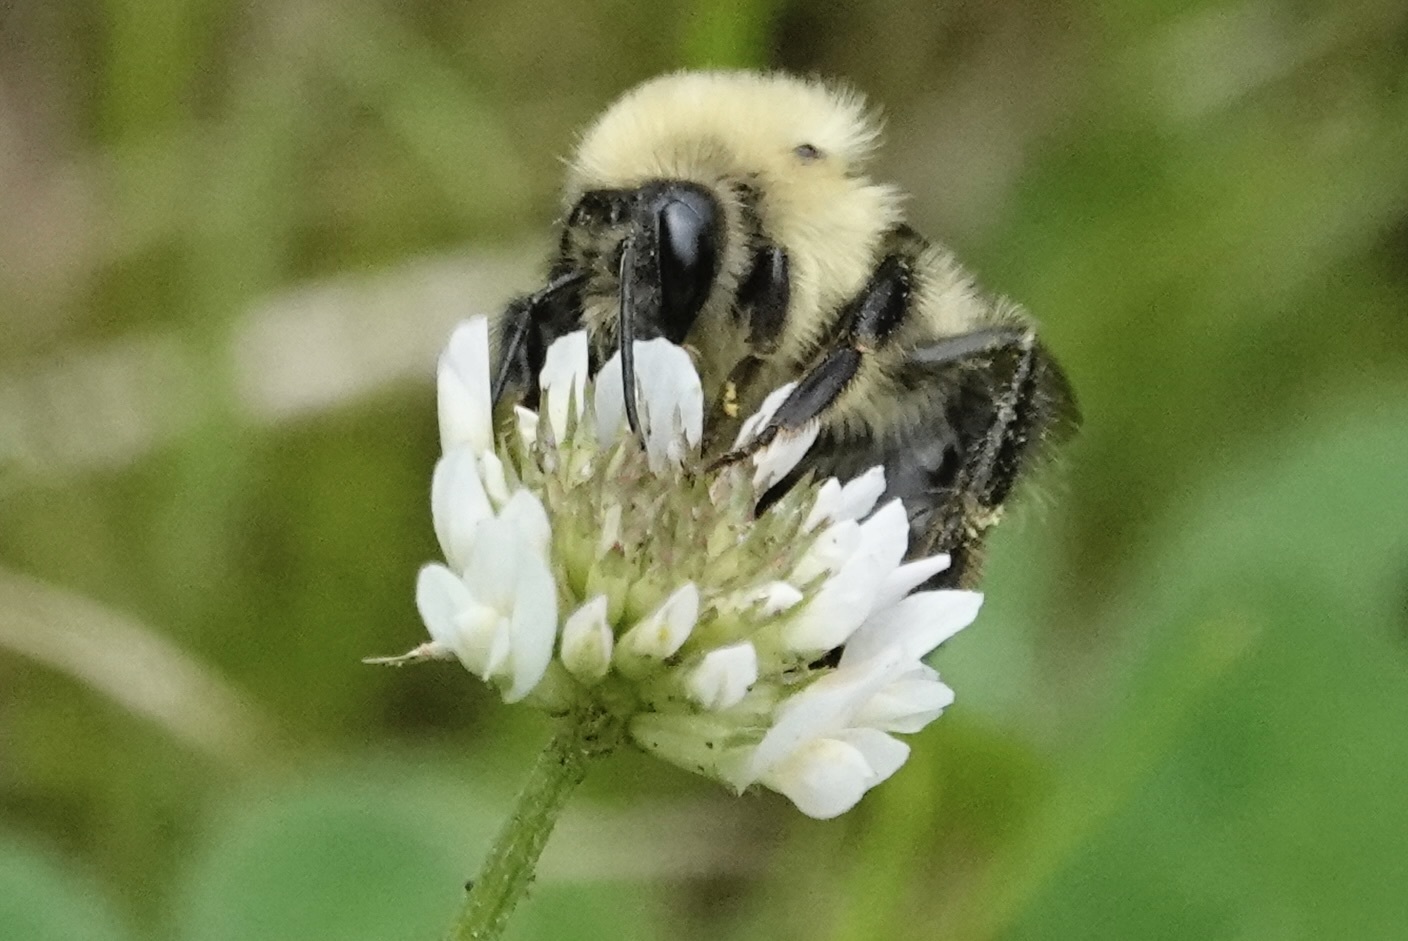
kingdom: Animalia
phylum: Arthropoda
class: Insecta
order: Hymenoptera
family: Apidae
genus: Bombus
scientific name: Bombus bimaculatus
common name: Two-spotted bumble bee
